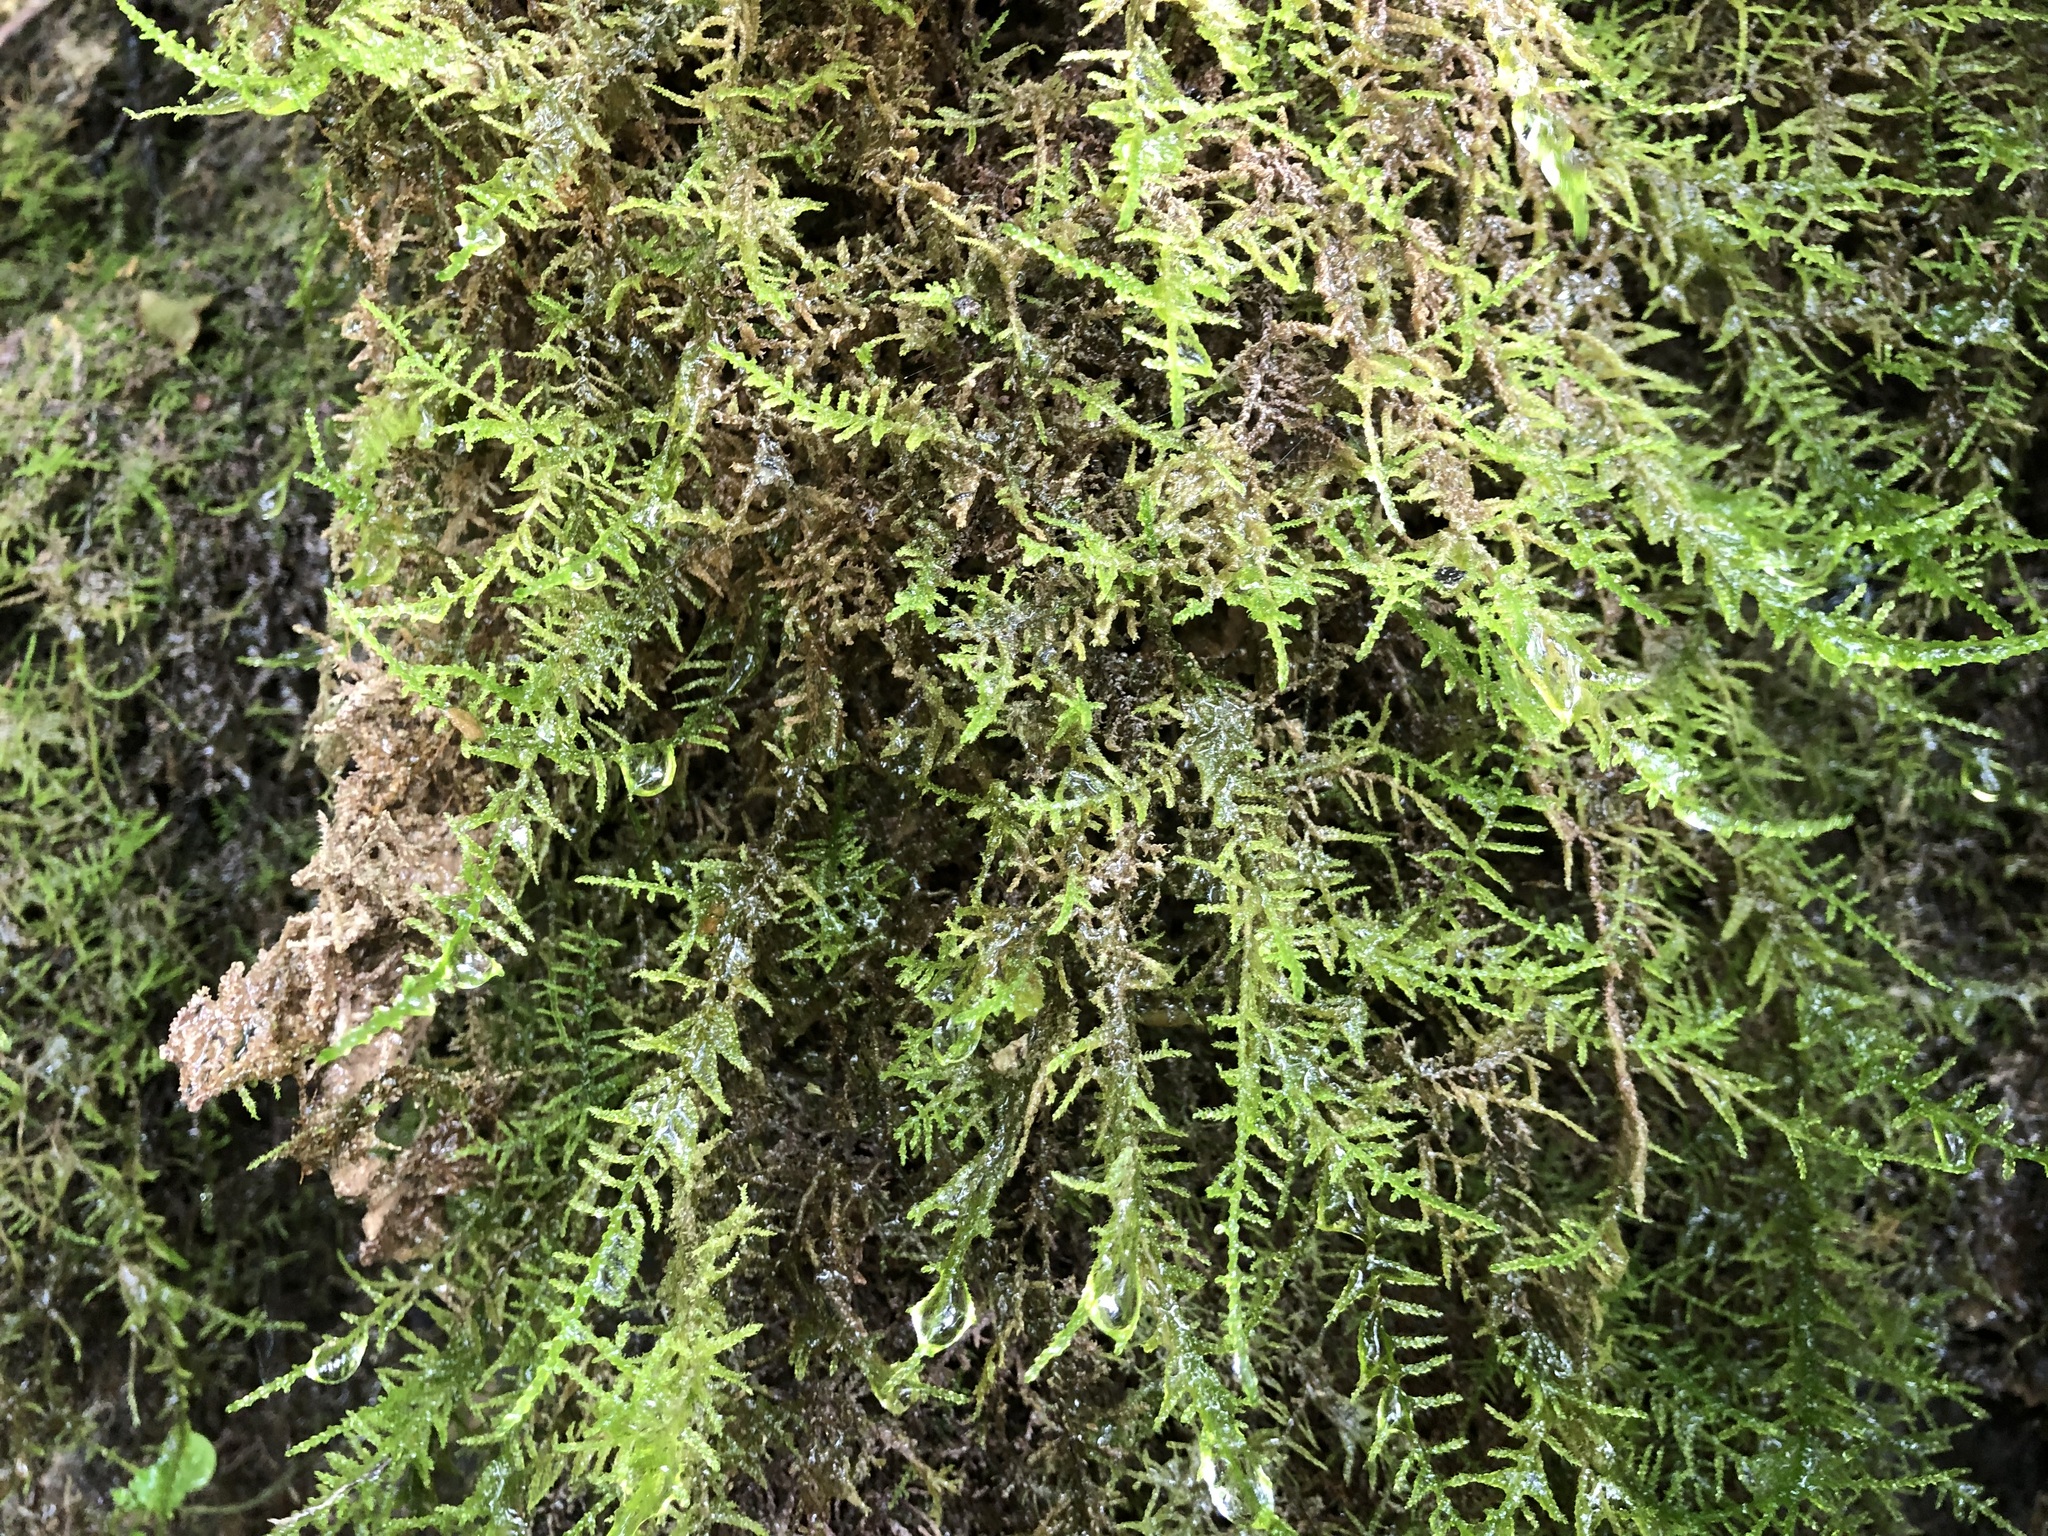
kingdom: Plantae
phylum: Bryophyta
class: Bryopsida
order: Hypnales
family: Amblystegiaceae
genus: Palustriella
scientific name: Palustriella commutata
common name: Curled hook-moss
